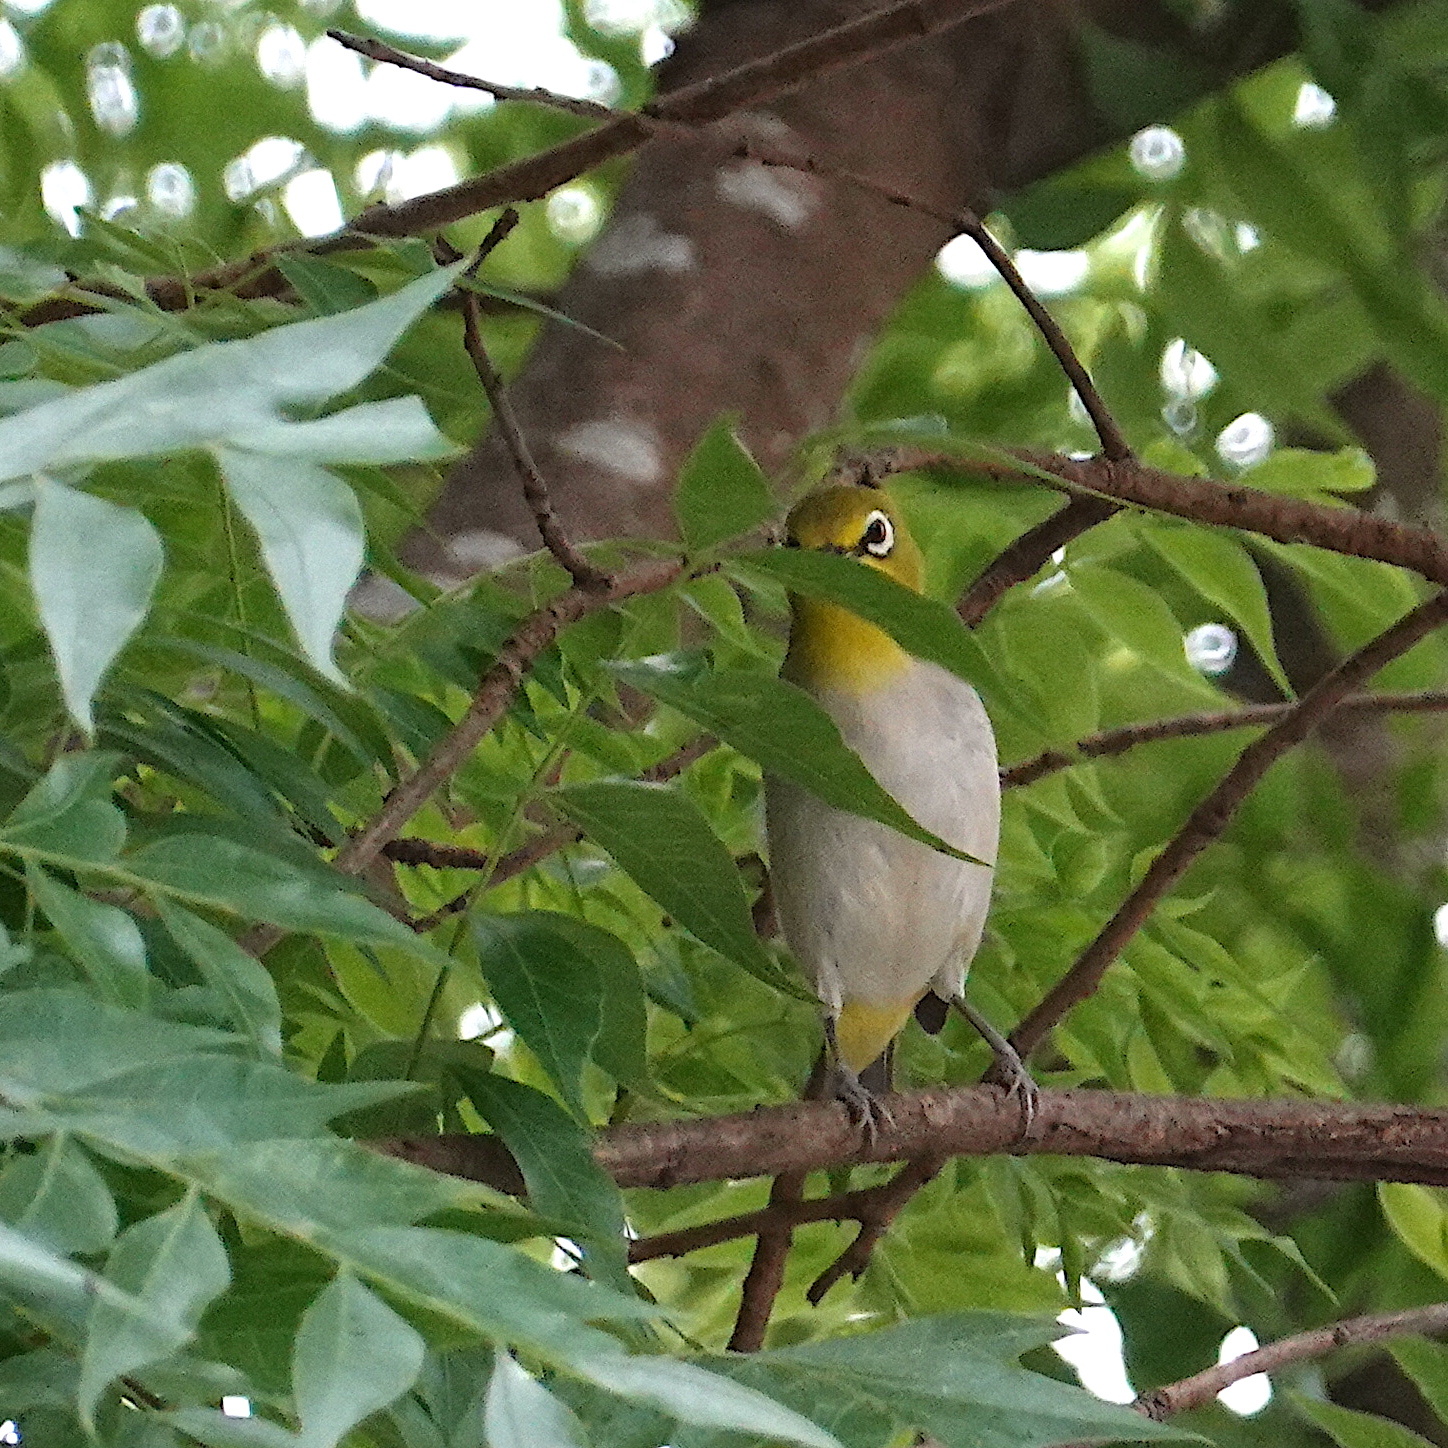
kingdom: Animalia
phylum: Chordata
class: Aves
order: Passeriformes
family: Zosteropidae
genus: Zosterops
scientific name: Zosterops simplex
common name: Swinhoe's white-eye
